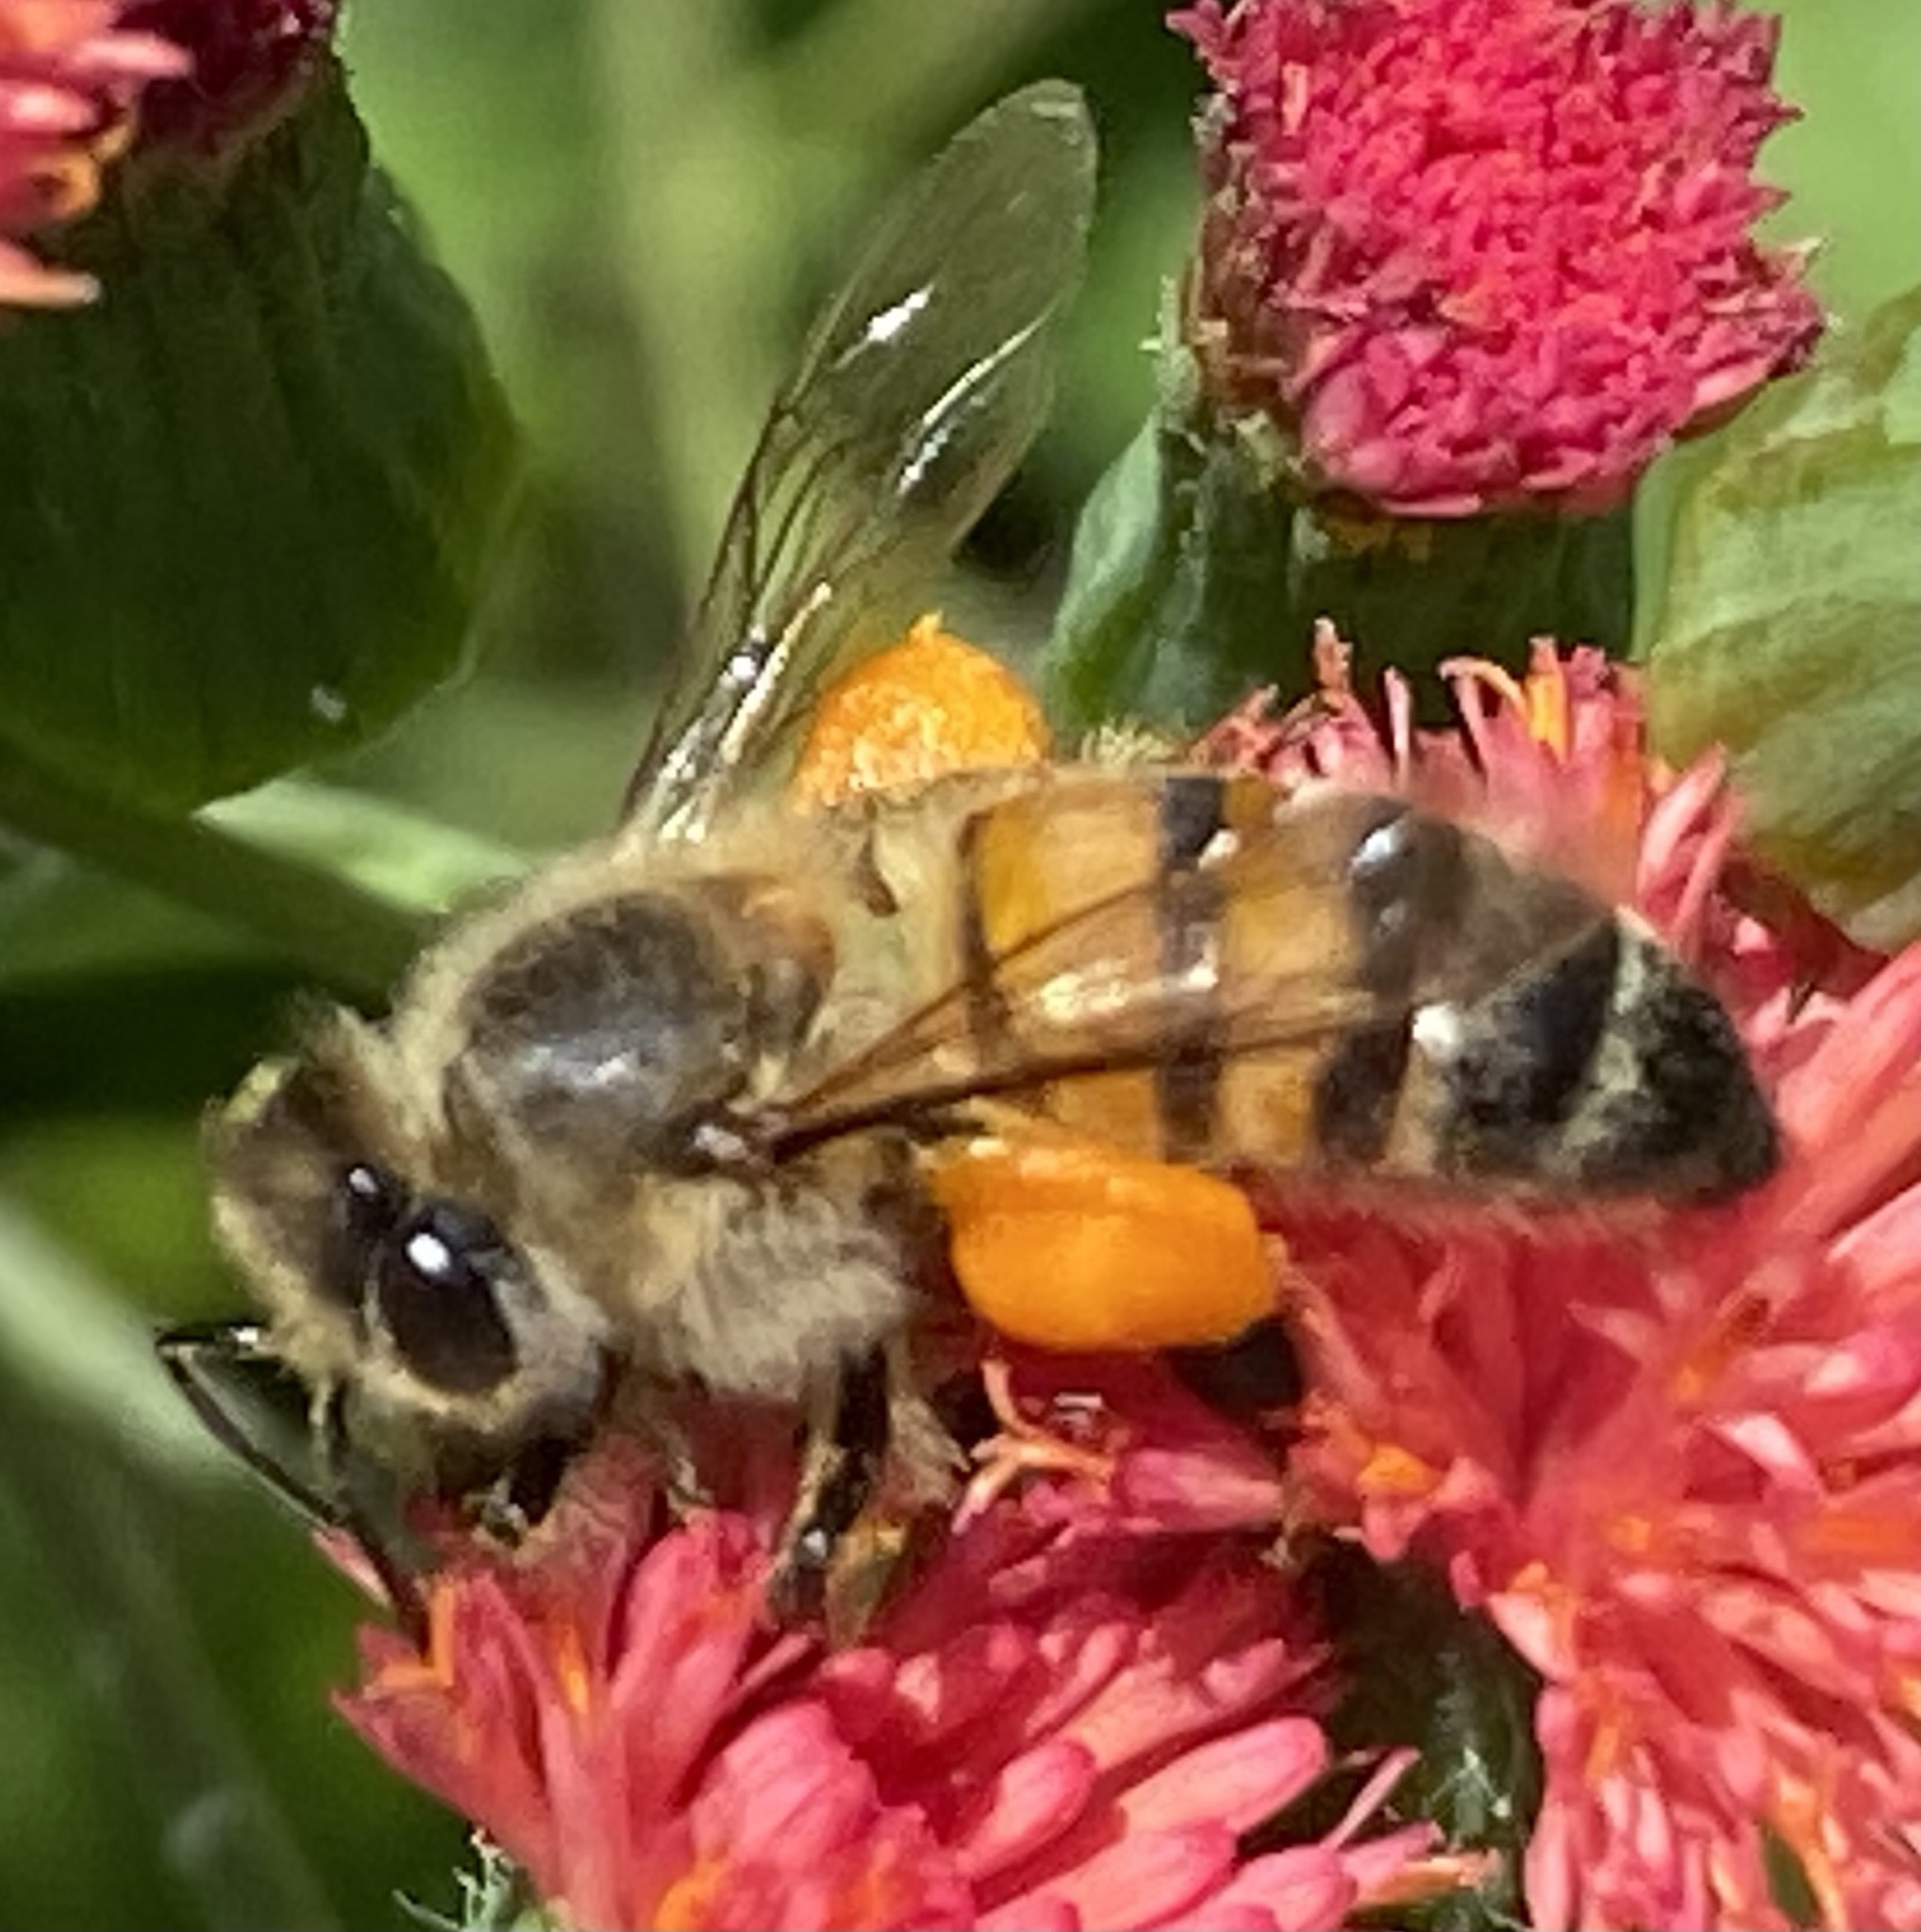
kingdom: Animalia
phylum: Arthropoda
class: Insecta
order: Hymenoptera
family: Apidae
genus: Apis
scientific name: Apis mellifera
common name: Honey bee
